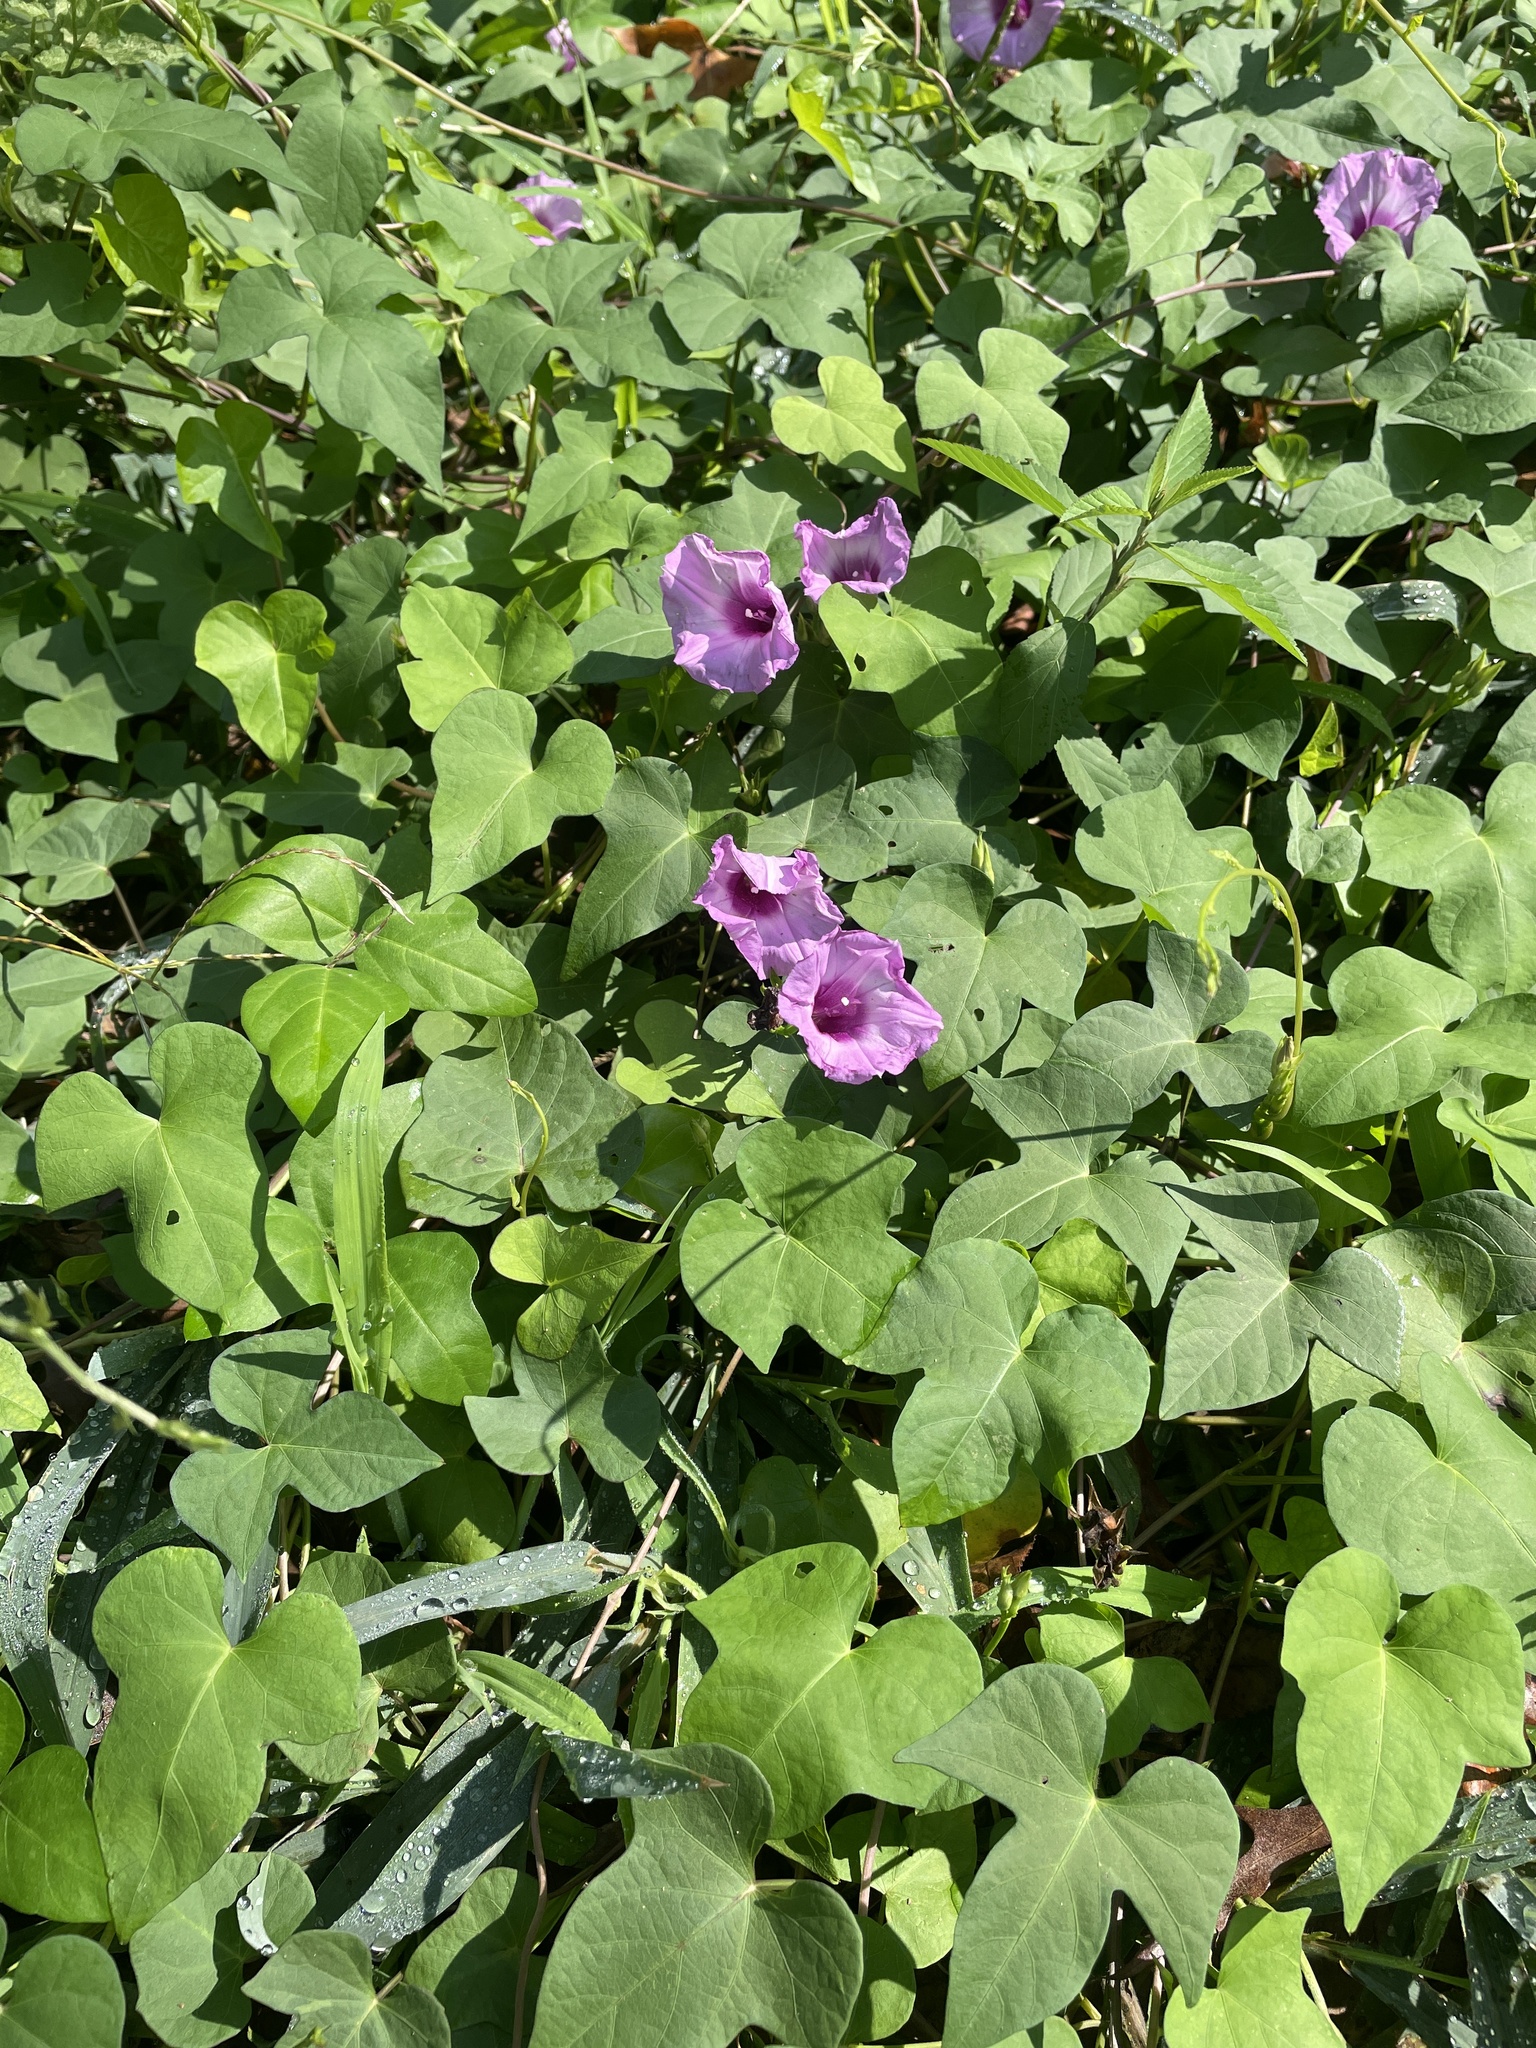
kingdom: Plantae
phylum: Tracheophyta
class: Magnoliopsida
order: Solanales
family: Convolvulaceae
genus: Ipomoea
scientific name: Ipomoea cordatotriloba
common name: Cotton morning glory
